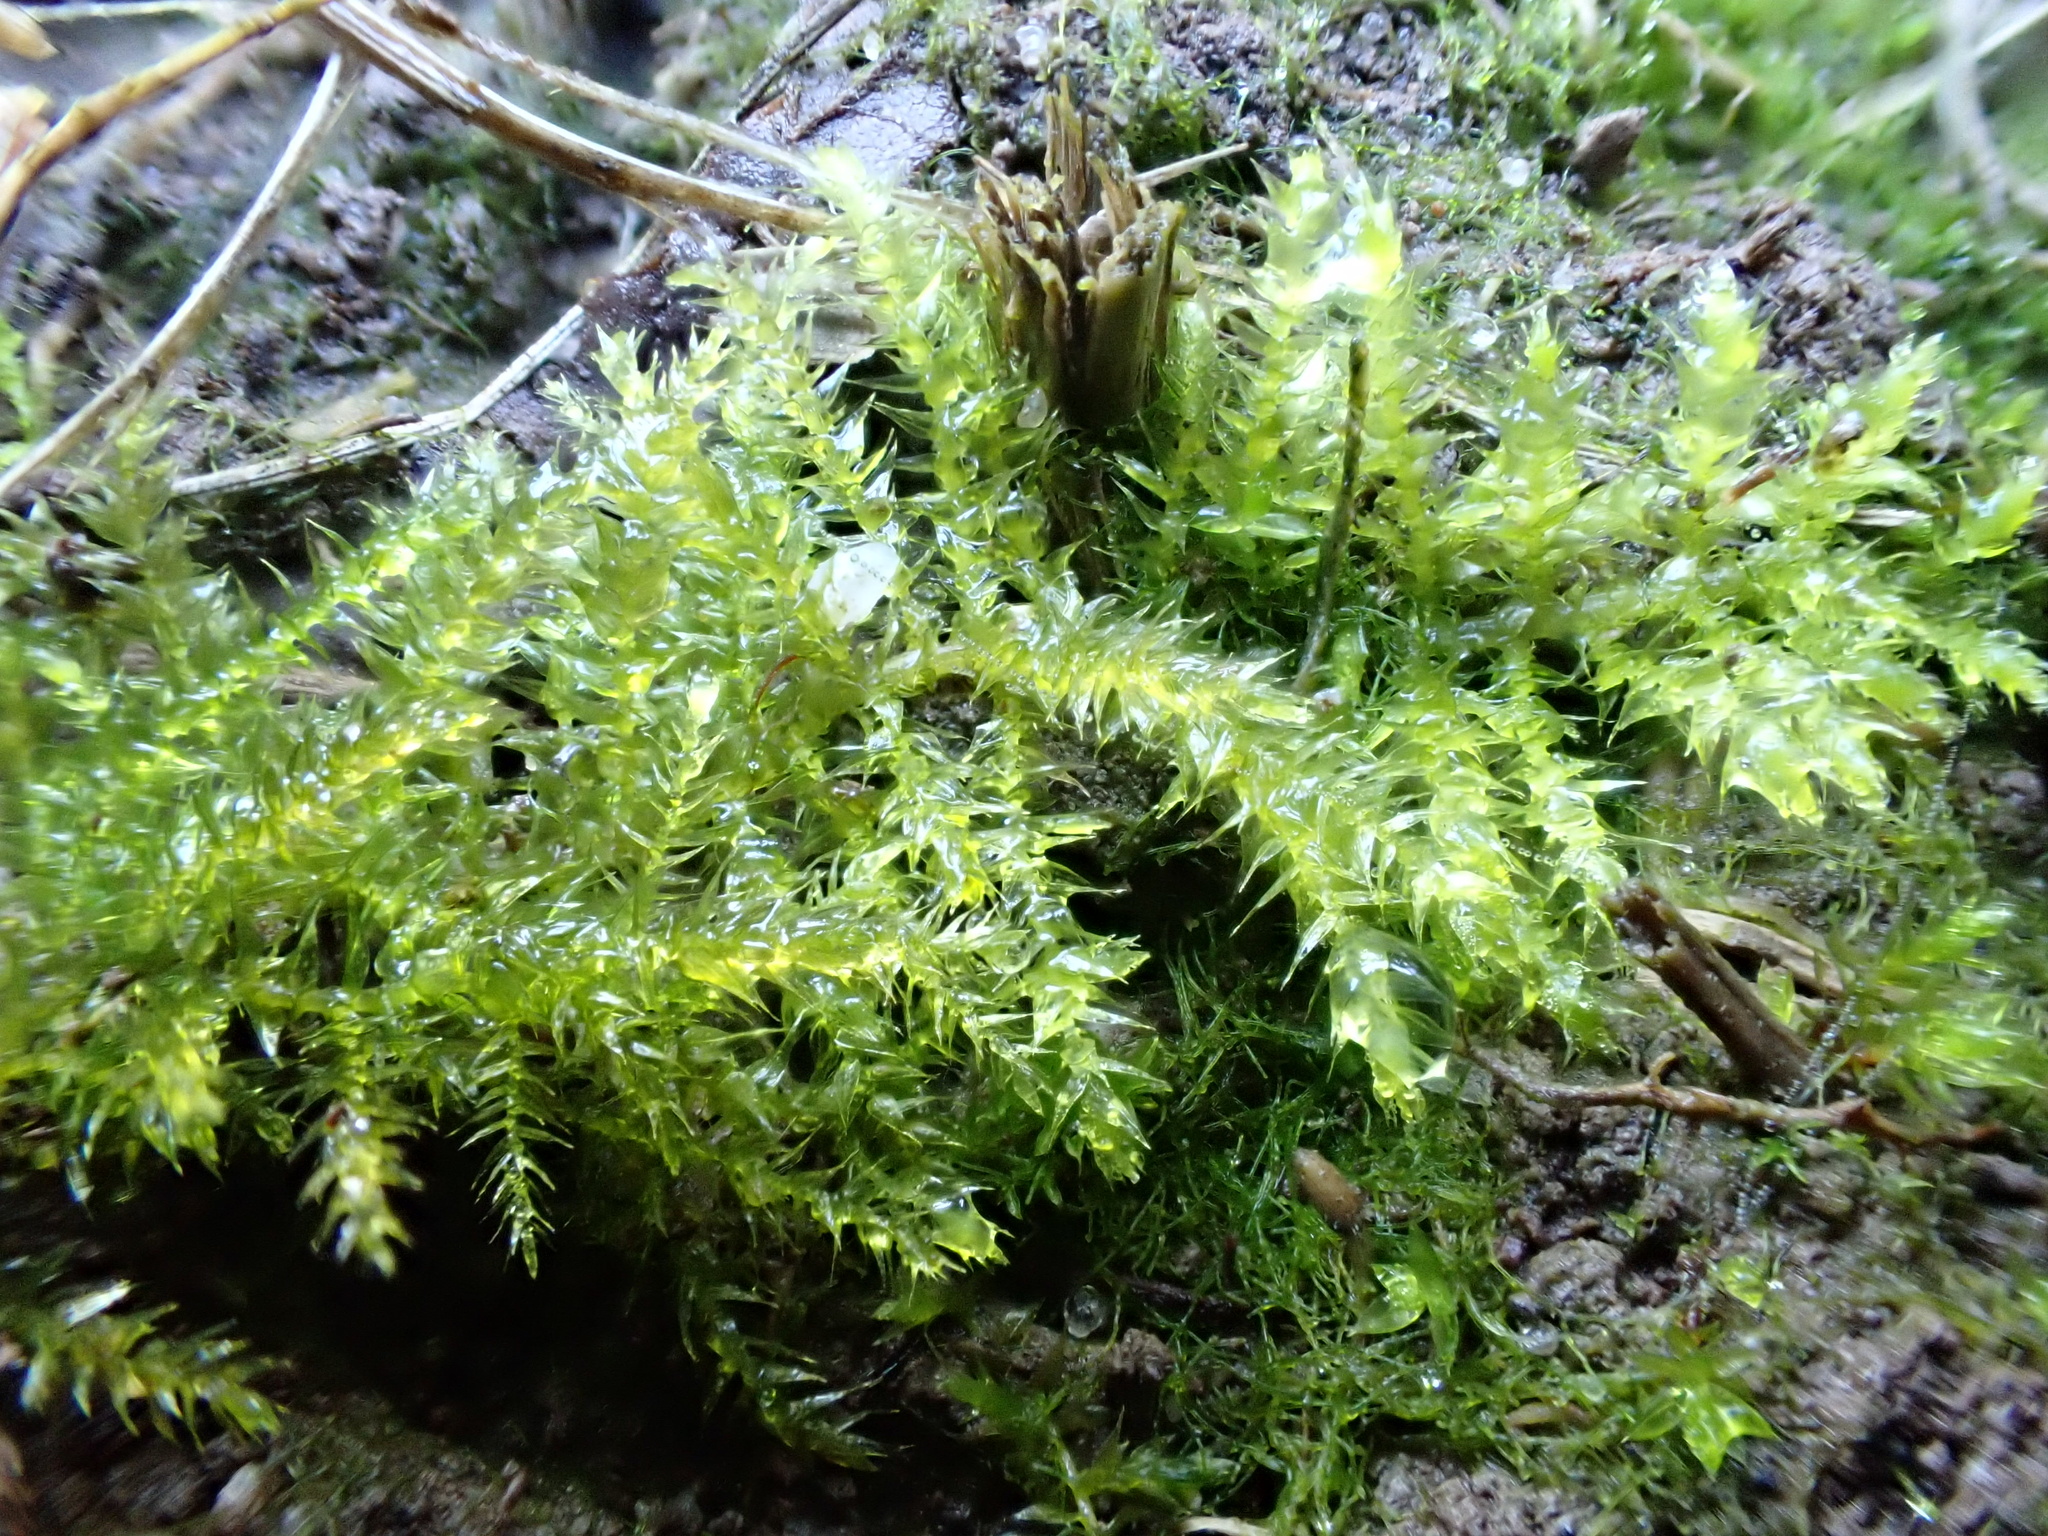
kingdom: Plantae
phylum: Bryophyta
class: Bryopsida
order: Hypnales
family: Brachytheciaceae
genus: Kindbergia
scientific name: Kindbergia praelonga
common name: Slender beaked moss
